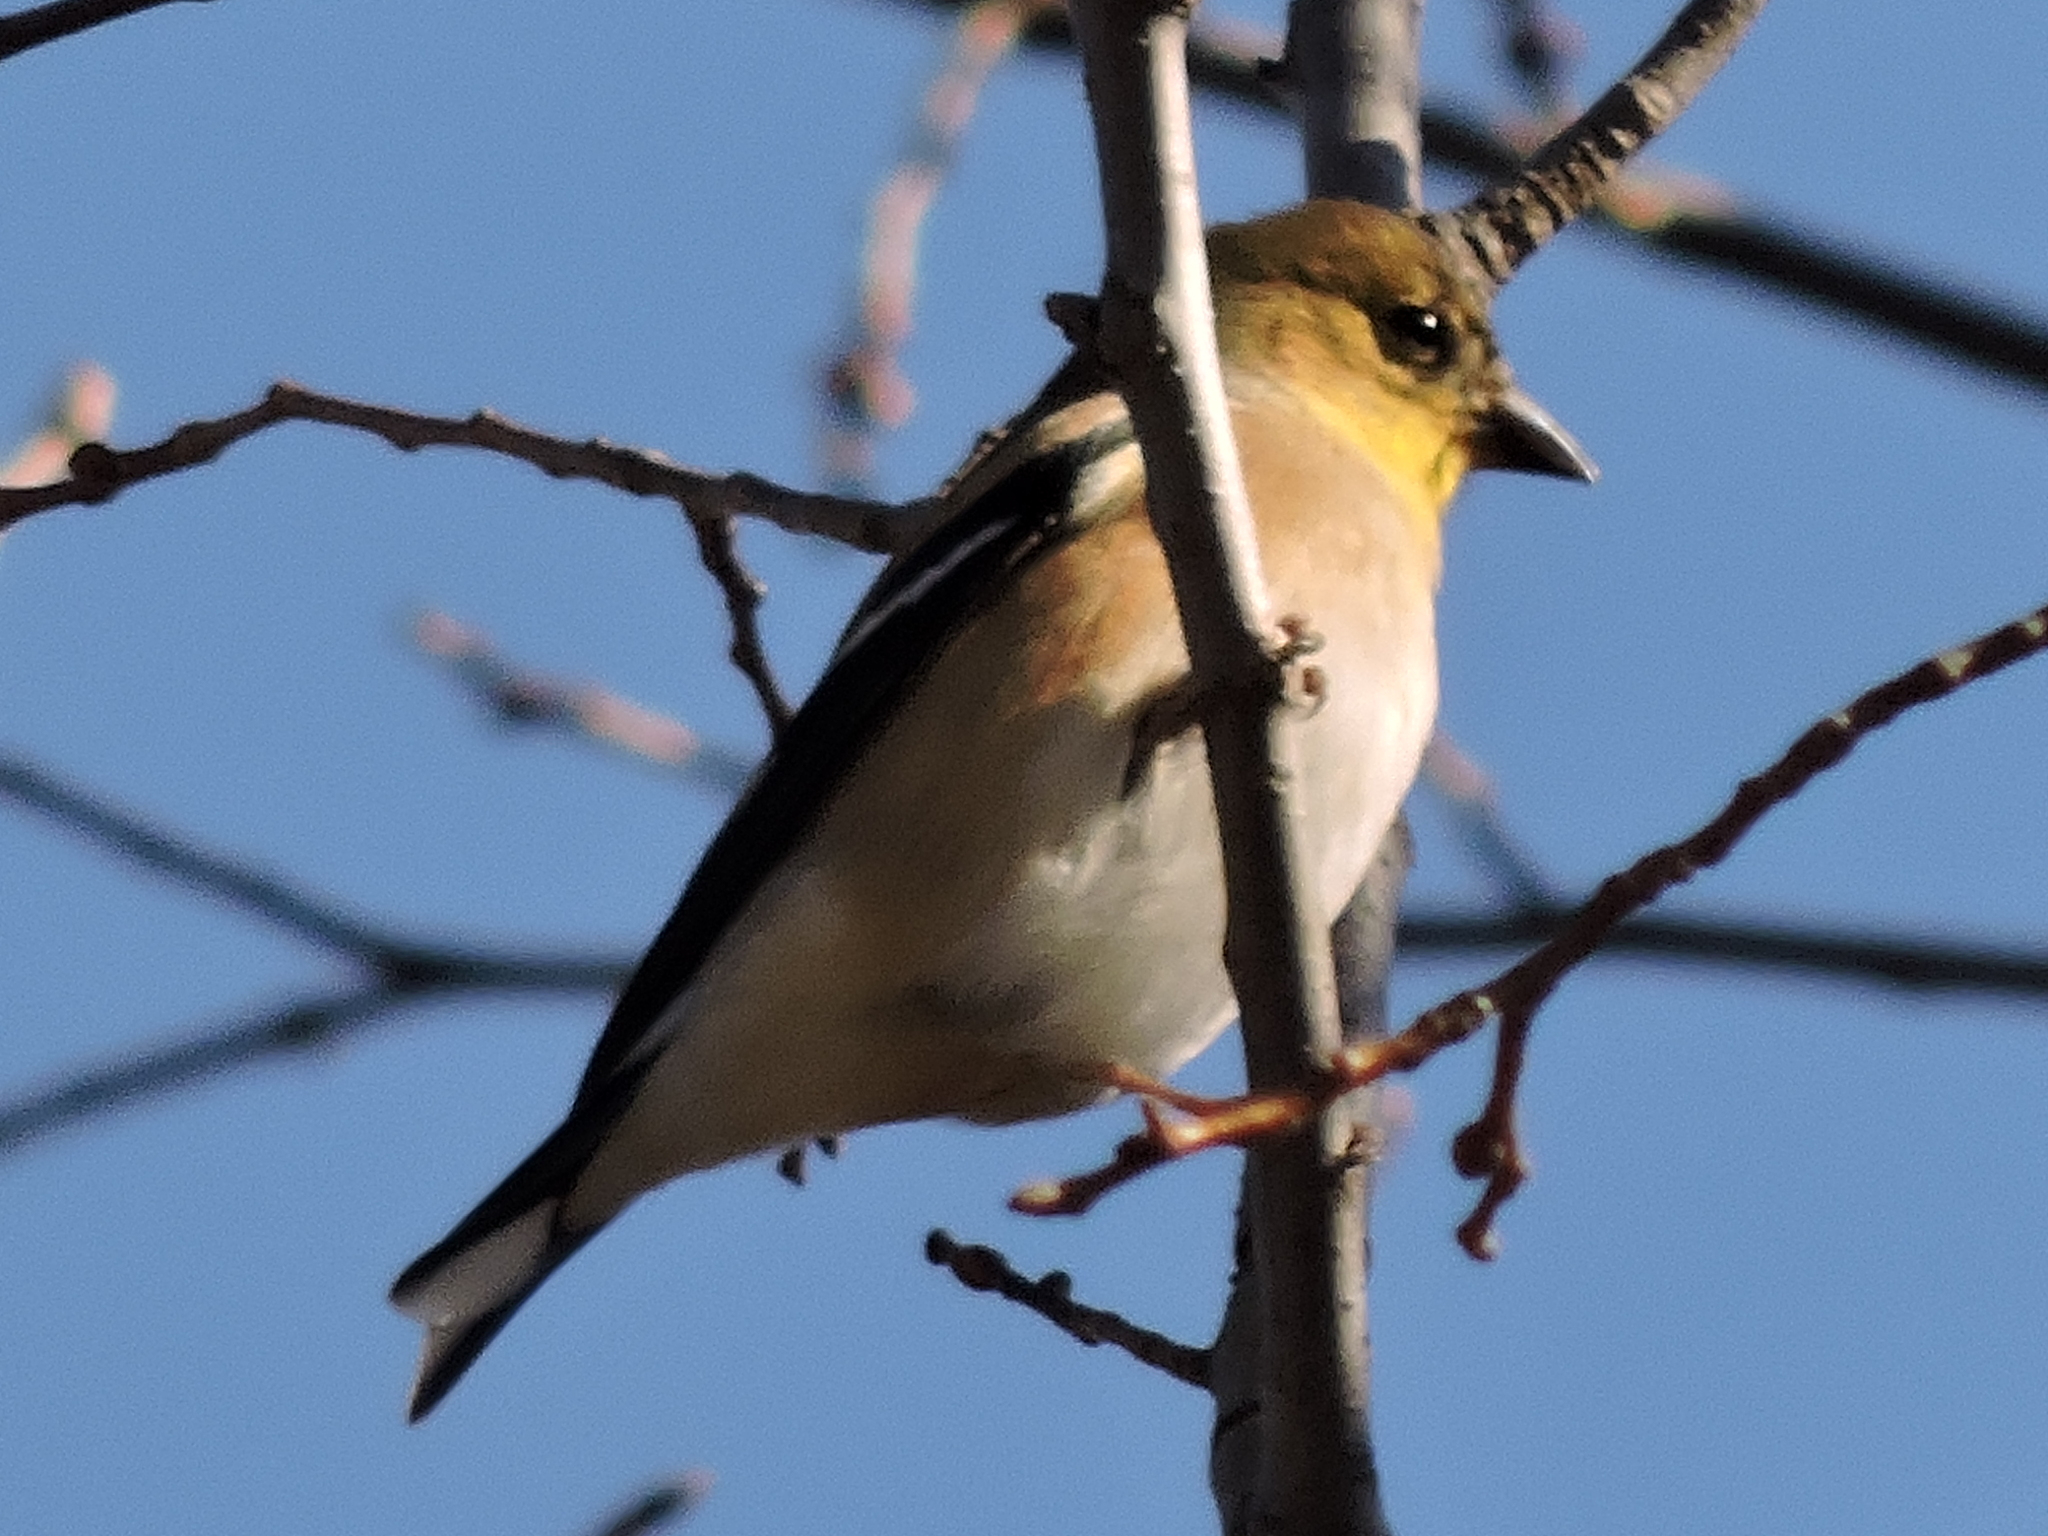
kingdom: Animalia
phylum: Chordata
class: Aves
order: Passeriformes
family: Fringillidae
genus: Spinus
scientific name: Spinus tristis
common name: American goldfinch
